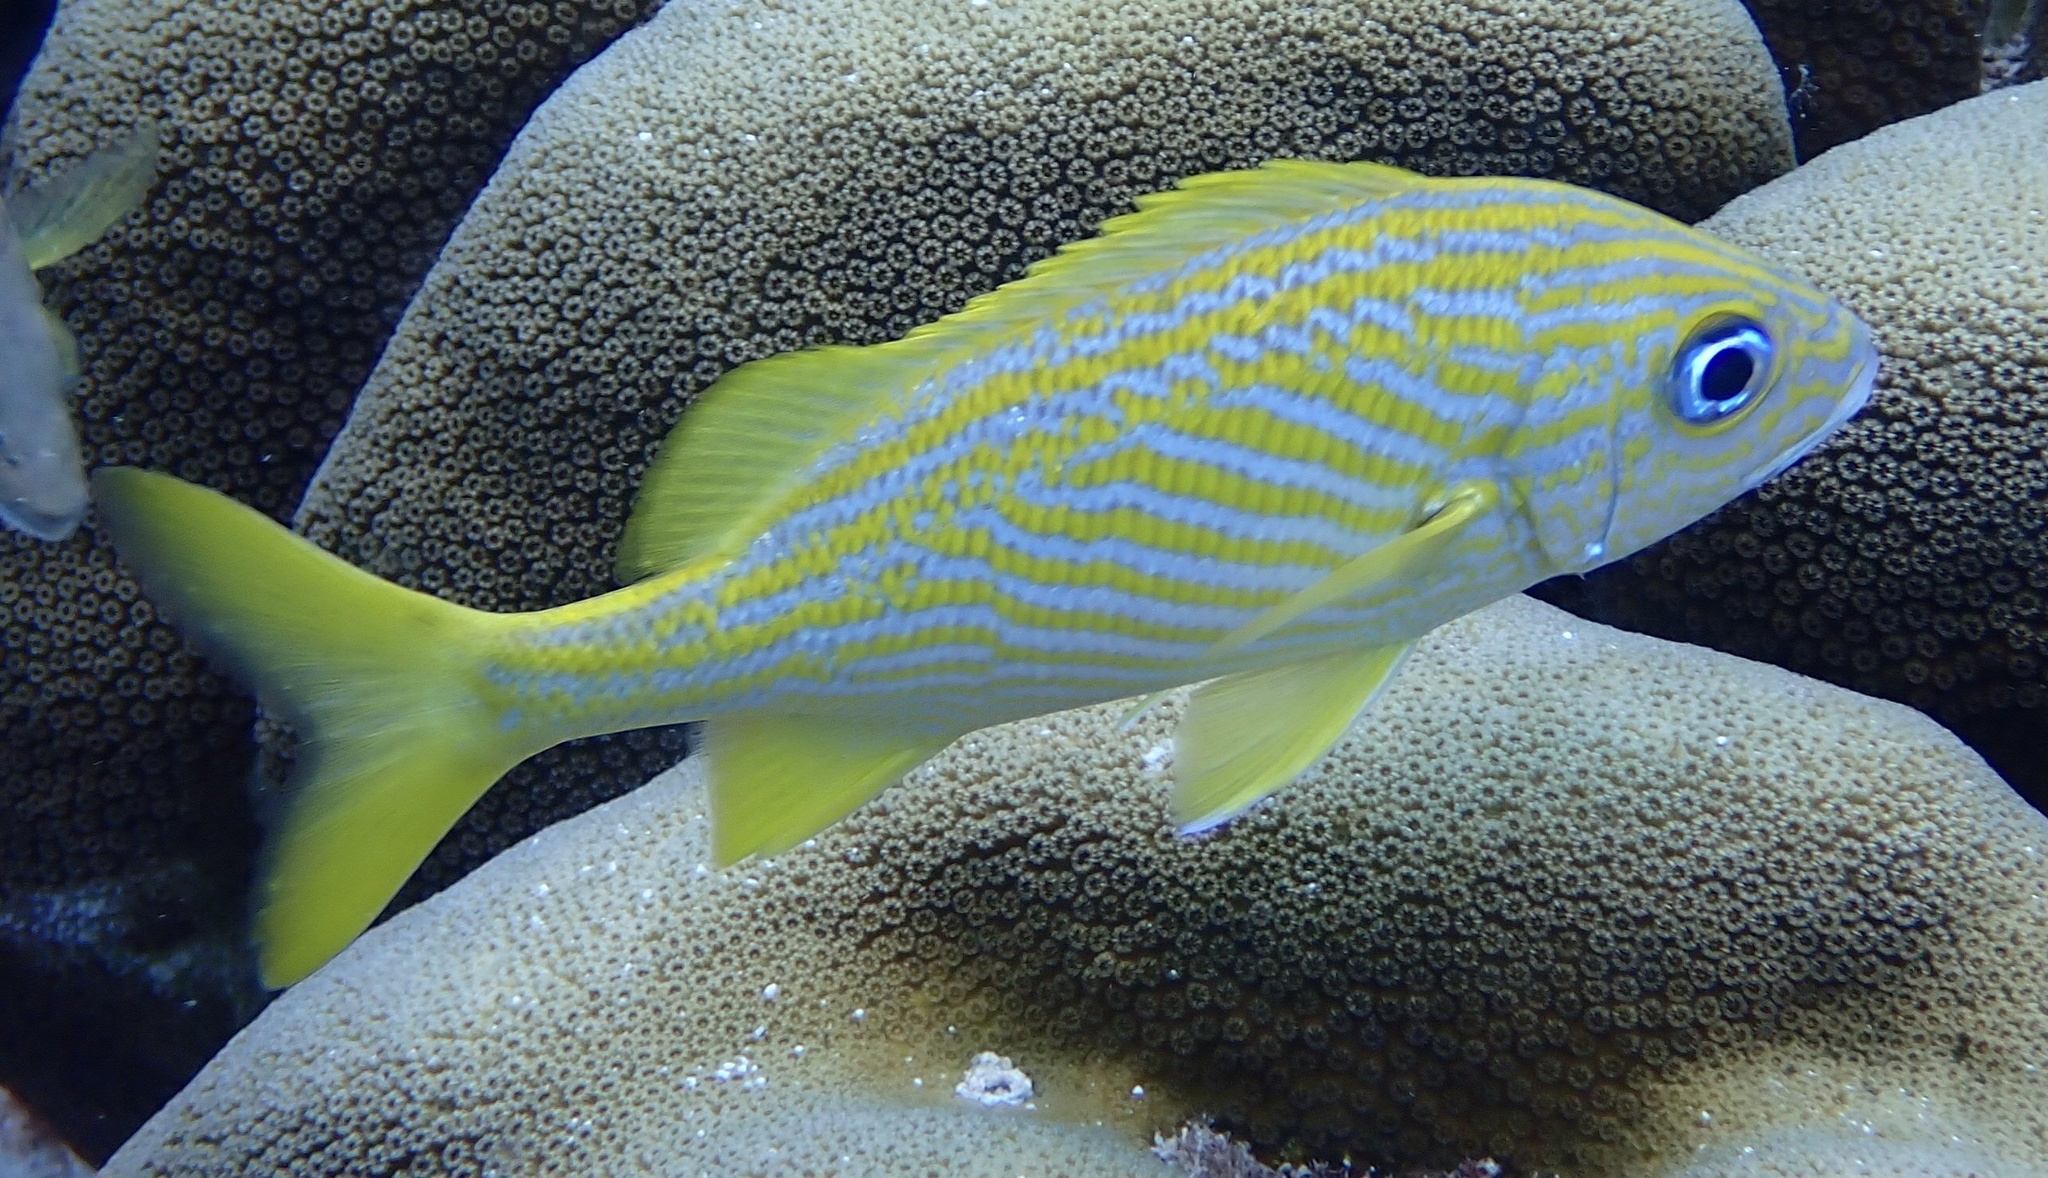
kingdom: Animalia
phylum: Chordata
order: Perciformes
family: Haemulidae
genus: Haemulon
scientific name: Haemulon flavolineatum
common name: French grunt
